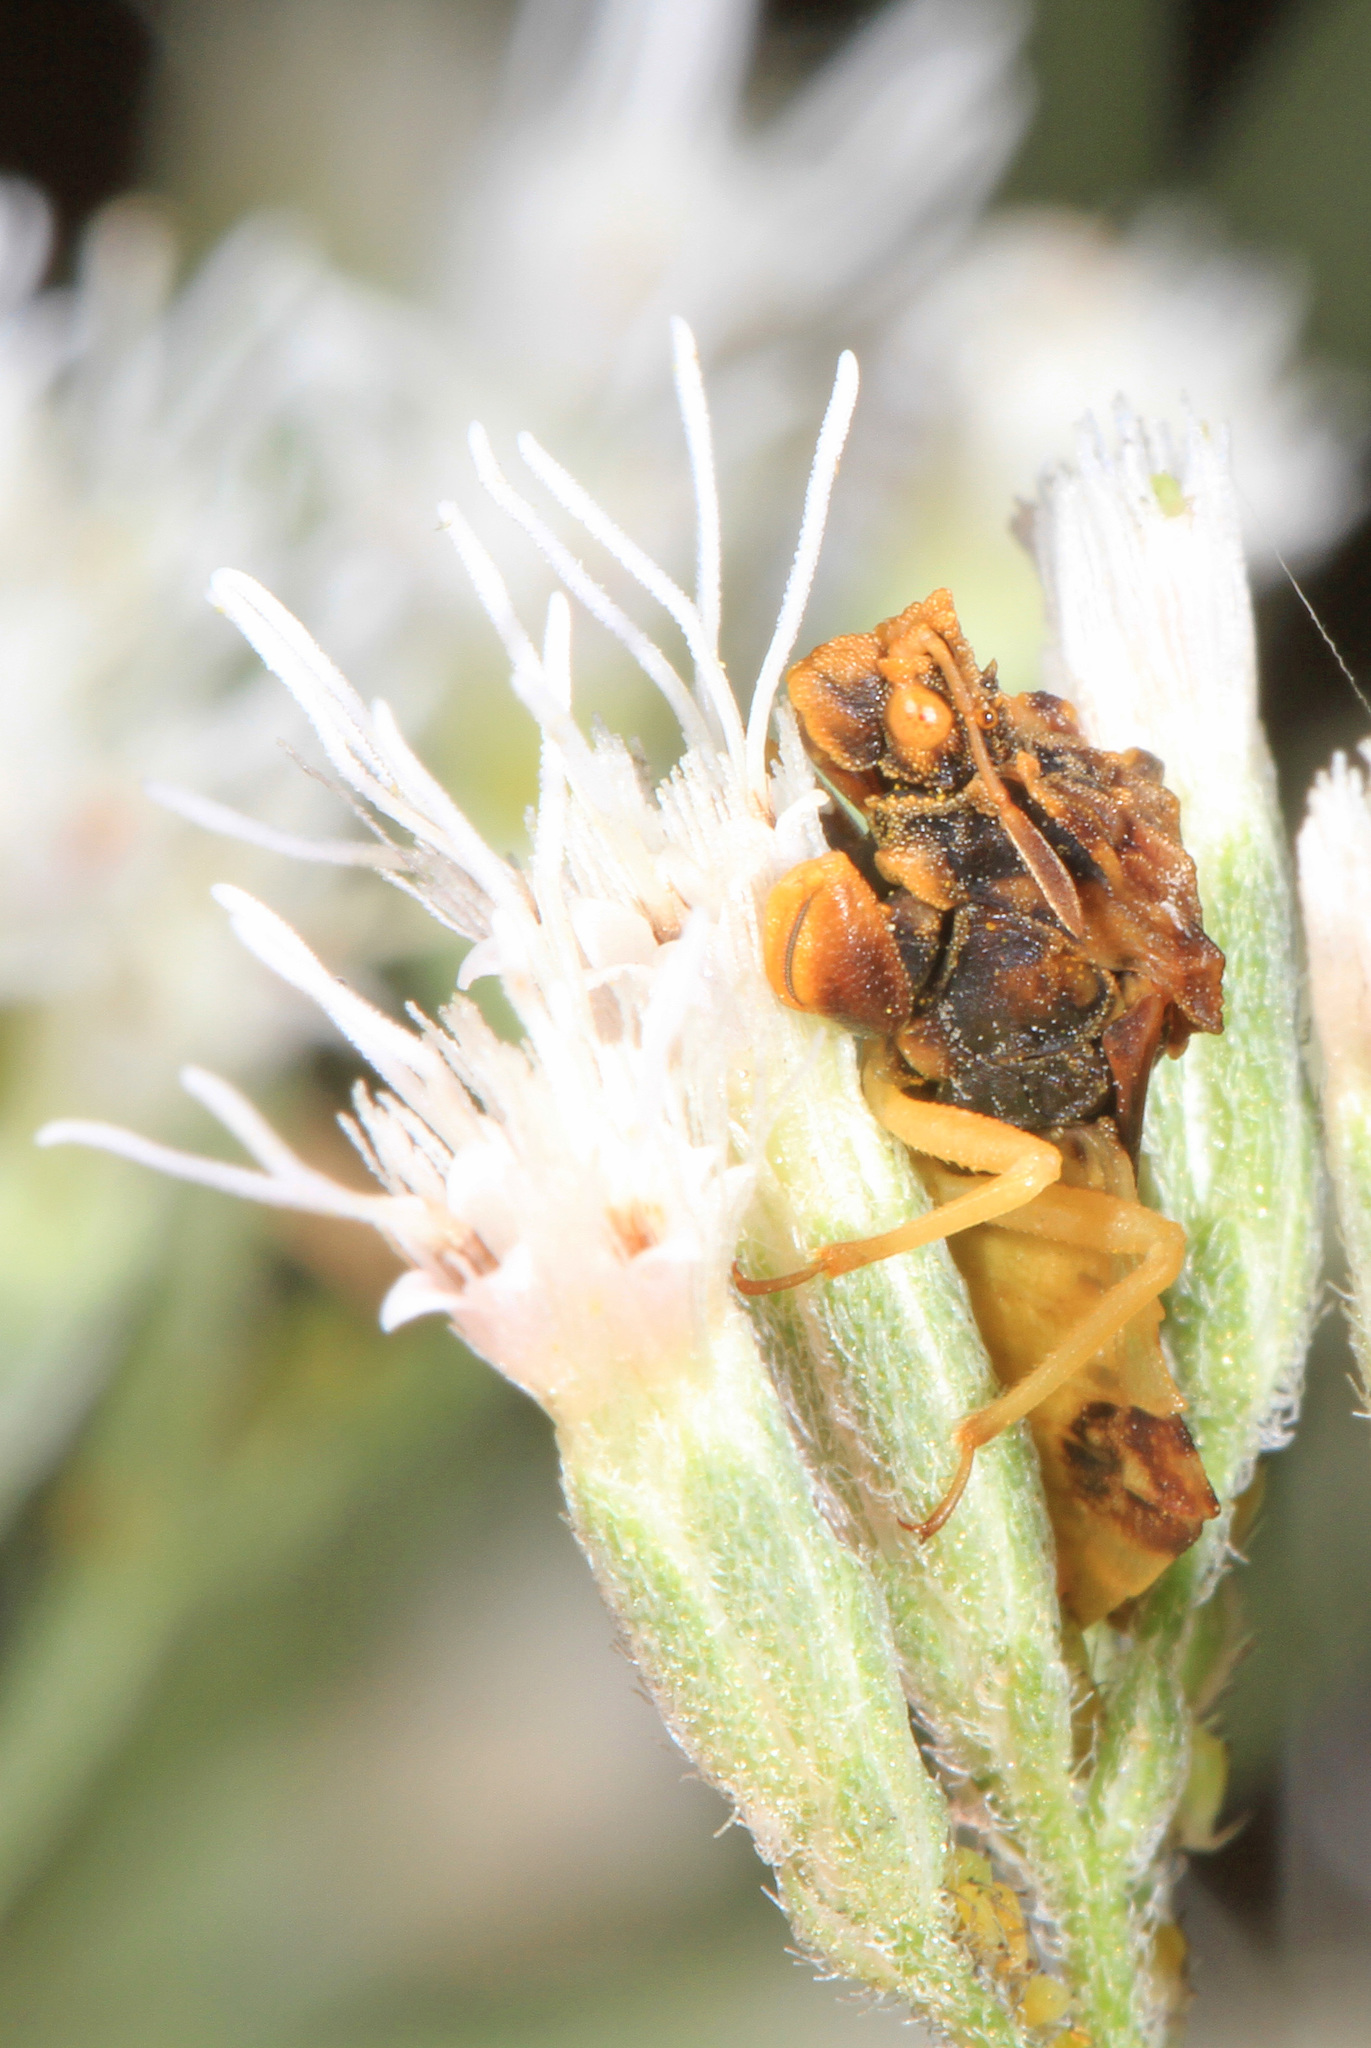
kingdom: Animalia
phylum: Arthropoda
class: Insecta
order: Hemiptera
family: Reduviidae
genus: Phymata
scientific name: Phymata fasciata
